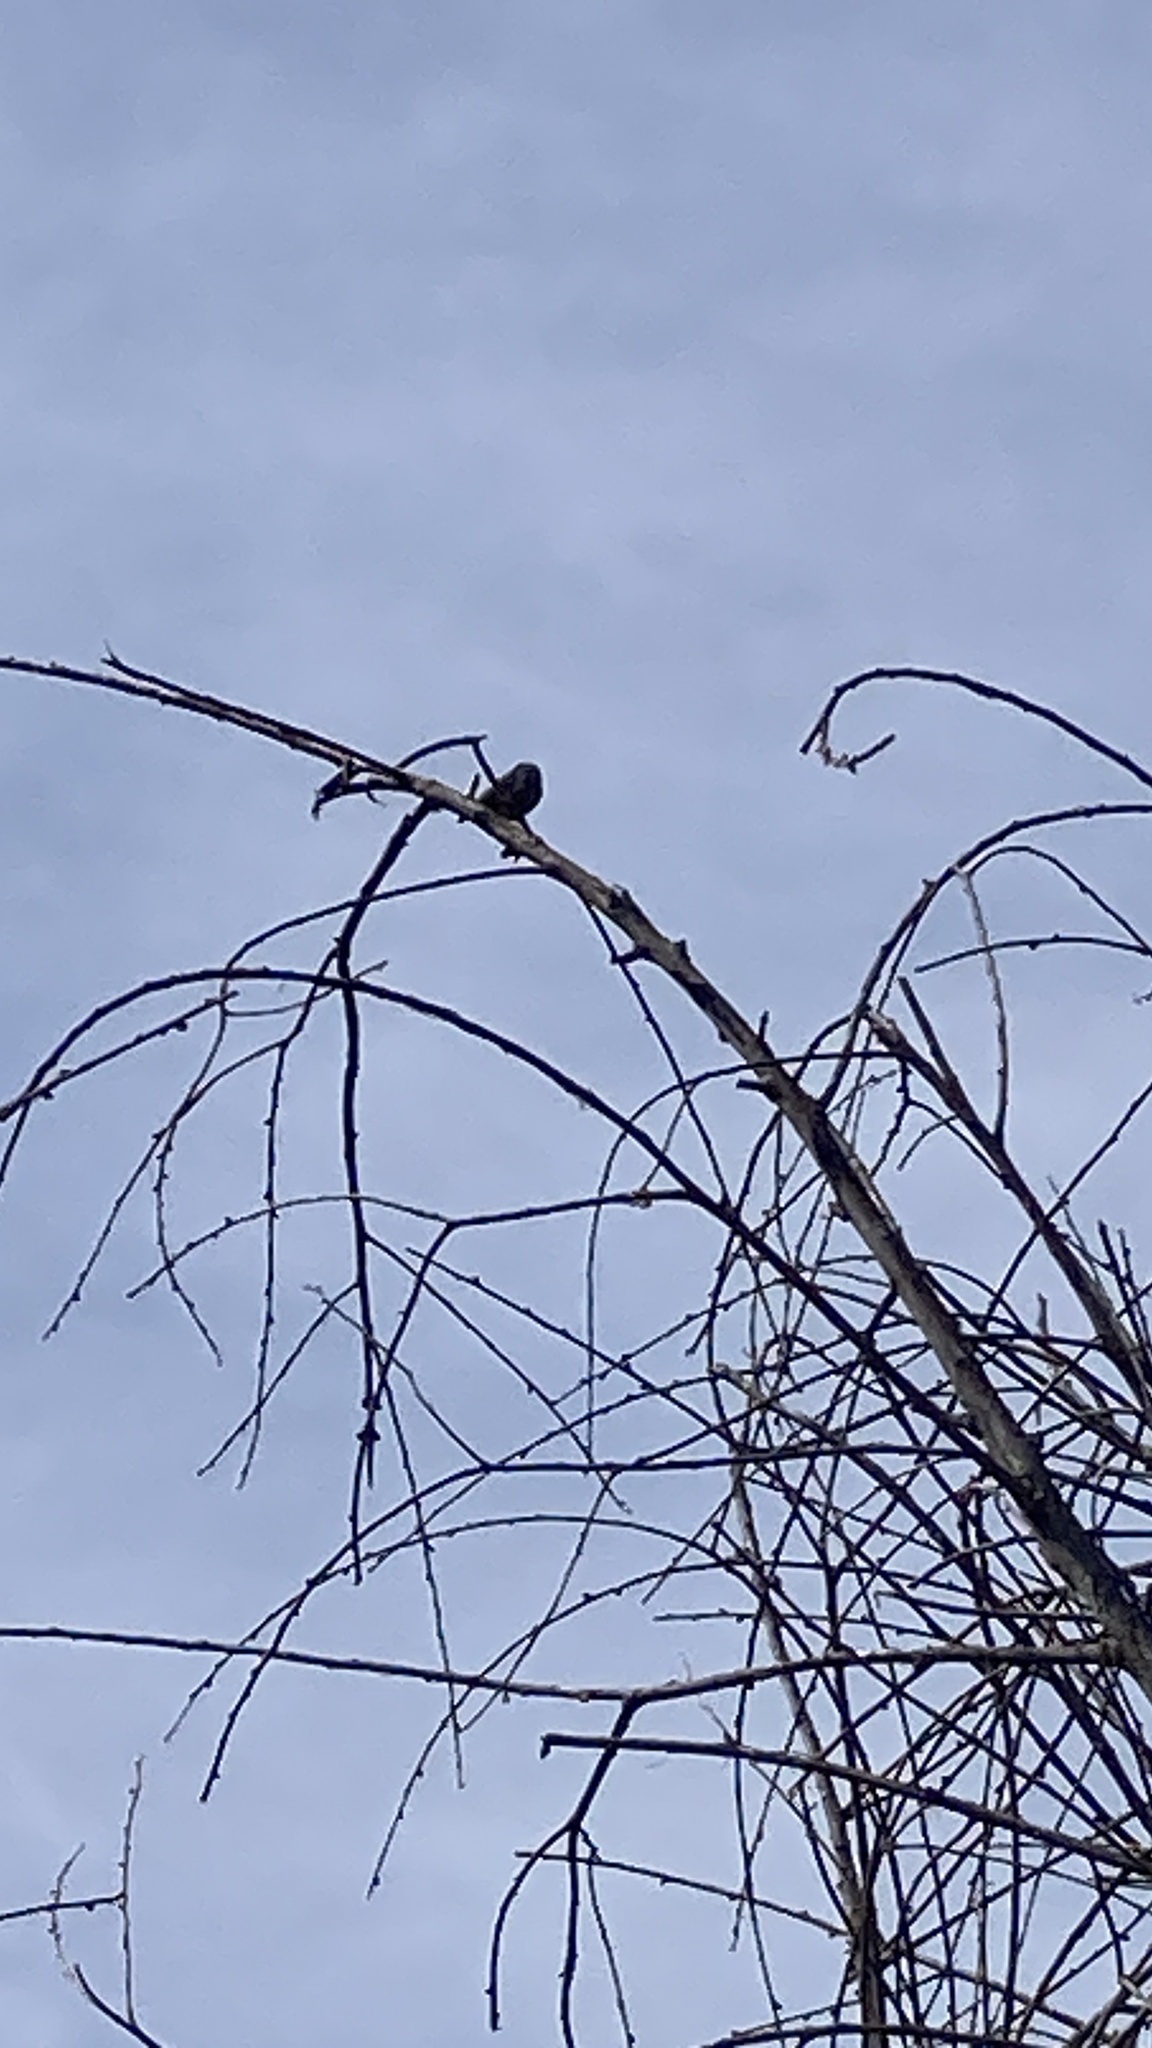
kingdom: Animalia
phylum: Chordata
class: Aves
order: Apodiformes
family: Trochilidae
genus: Calypte
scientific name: Calypte anna
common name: Anna's hummingbird
